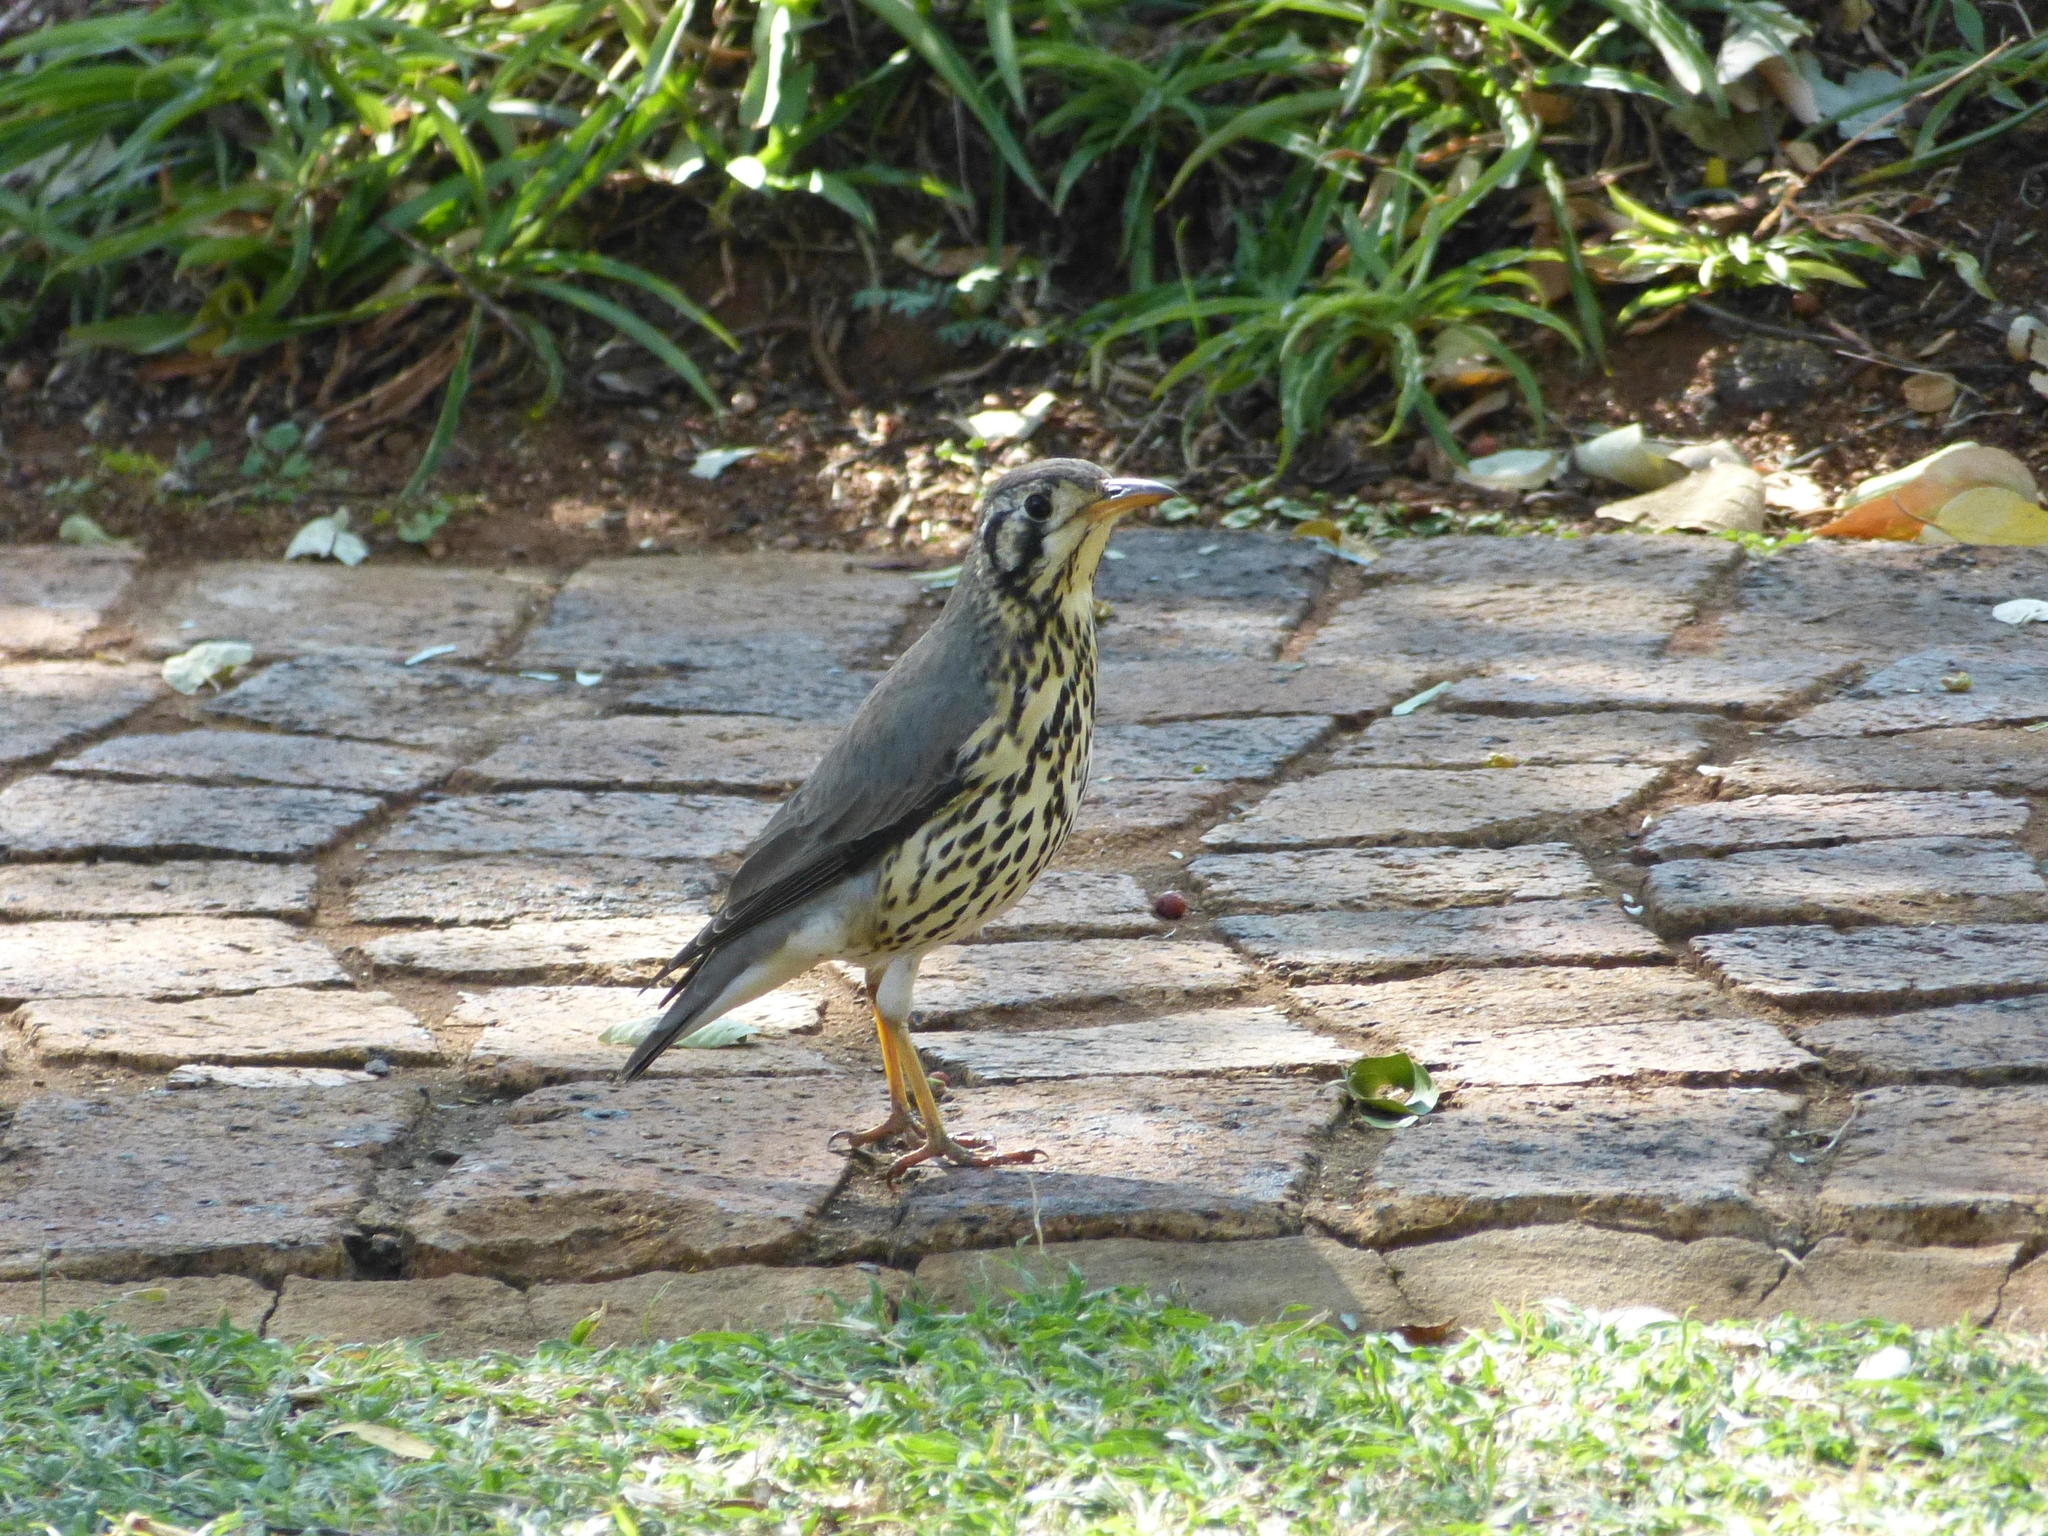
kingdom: Animalia
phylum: Chordata
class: Aves
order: Passeriformes
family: Turdidae
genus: Psophocichla
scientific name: Psophocichla litsitsirupa
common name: Groundscraper thrush
